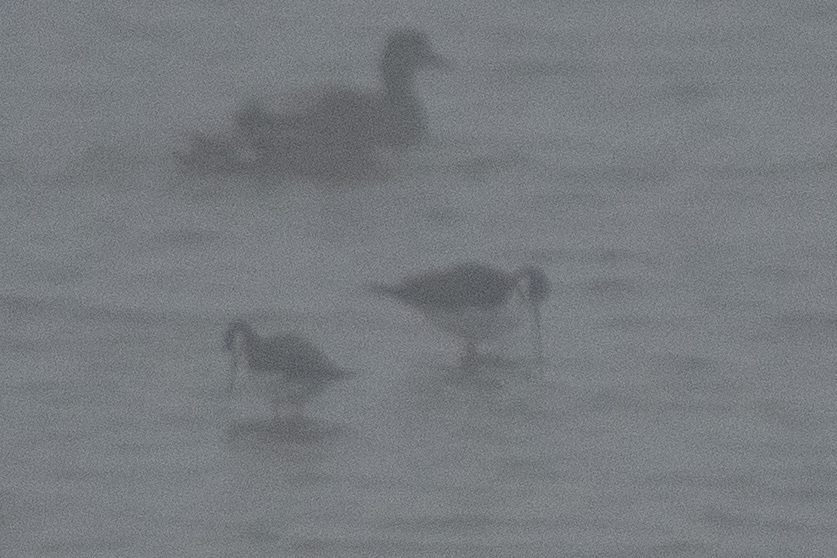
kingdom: Animalia
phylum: Chordata
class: Aves
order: Charadriiformes
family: Recurvirostridae
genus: Himantopus
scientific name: Himantopus mexicanus
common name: Black-necked stilt
